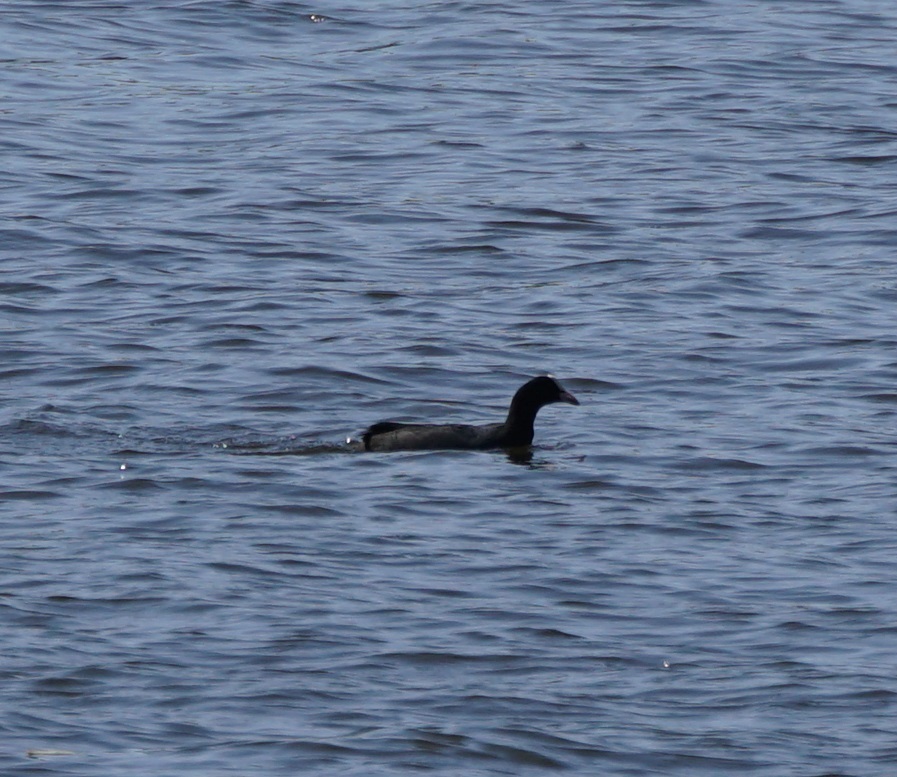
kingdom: Animalia
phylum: Chordata
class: Aves
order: Gruiformes
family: Rallidae
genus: Fulica
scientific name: Fulica atra
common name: Eurasian coot
